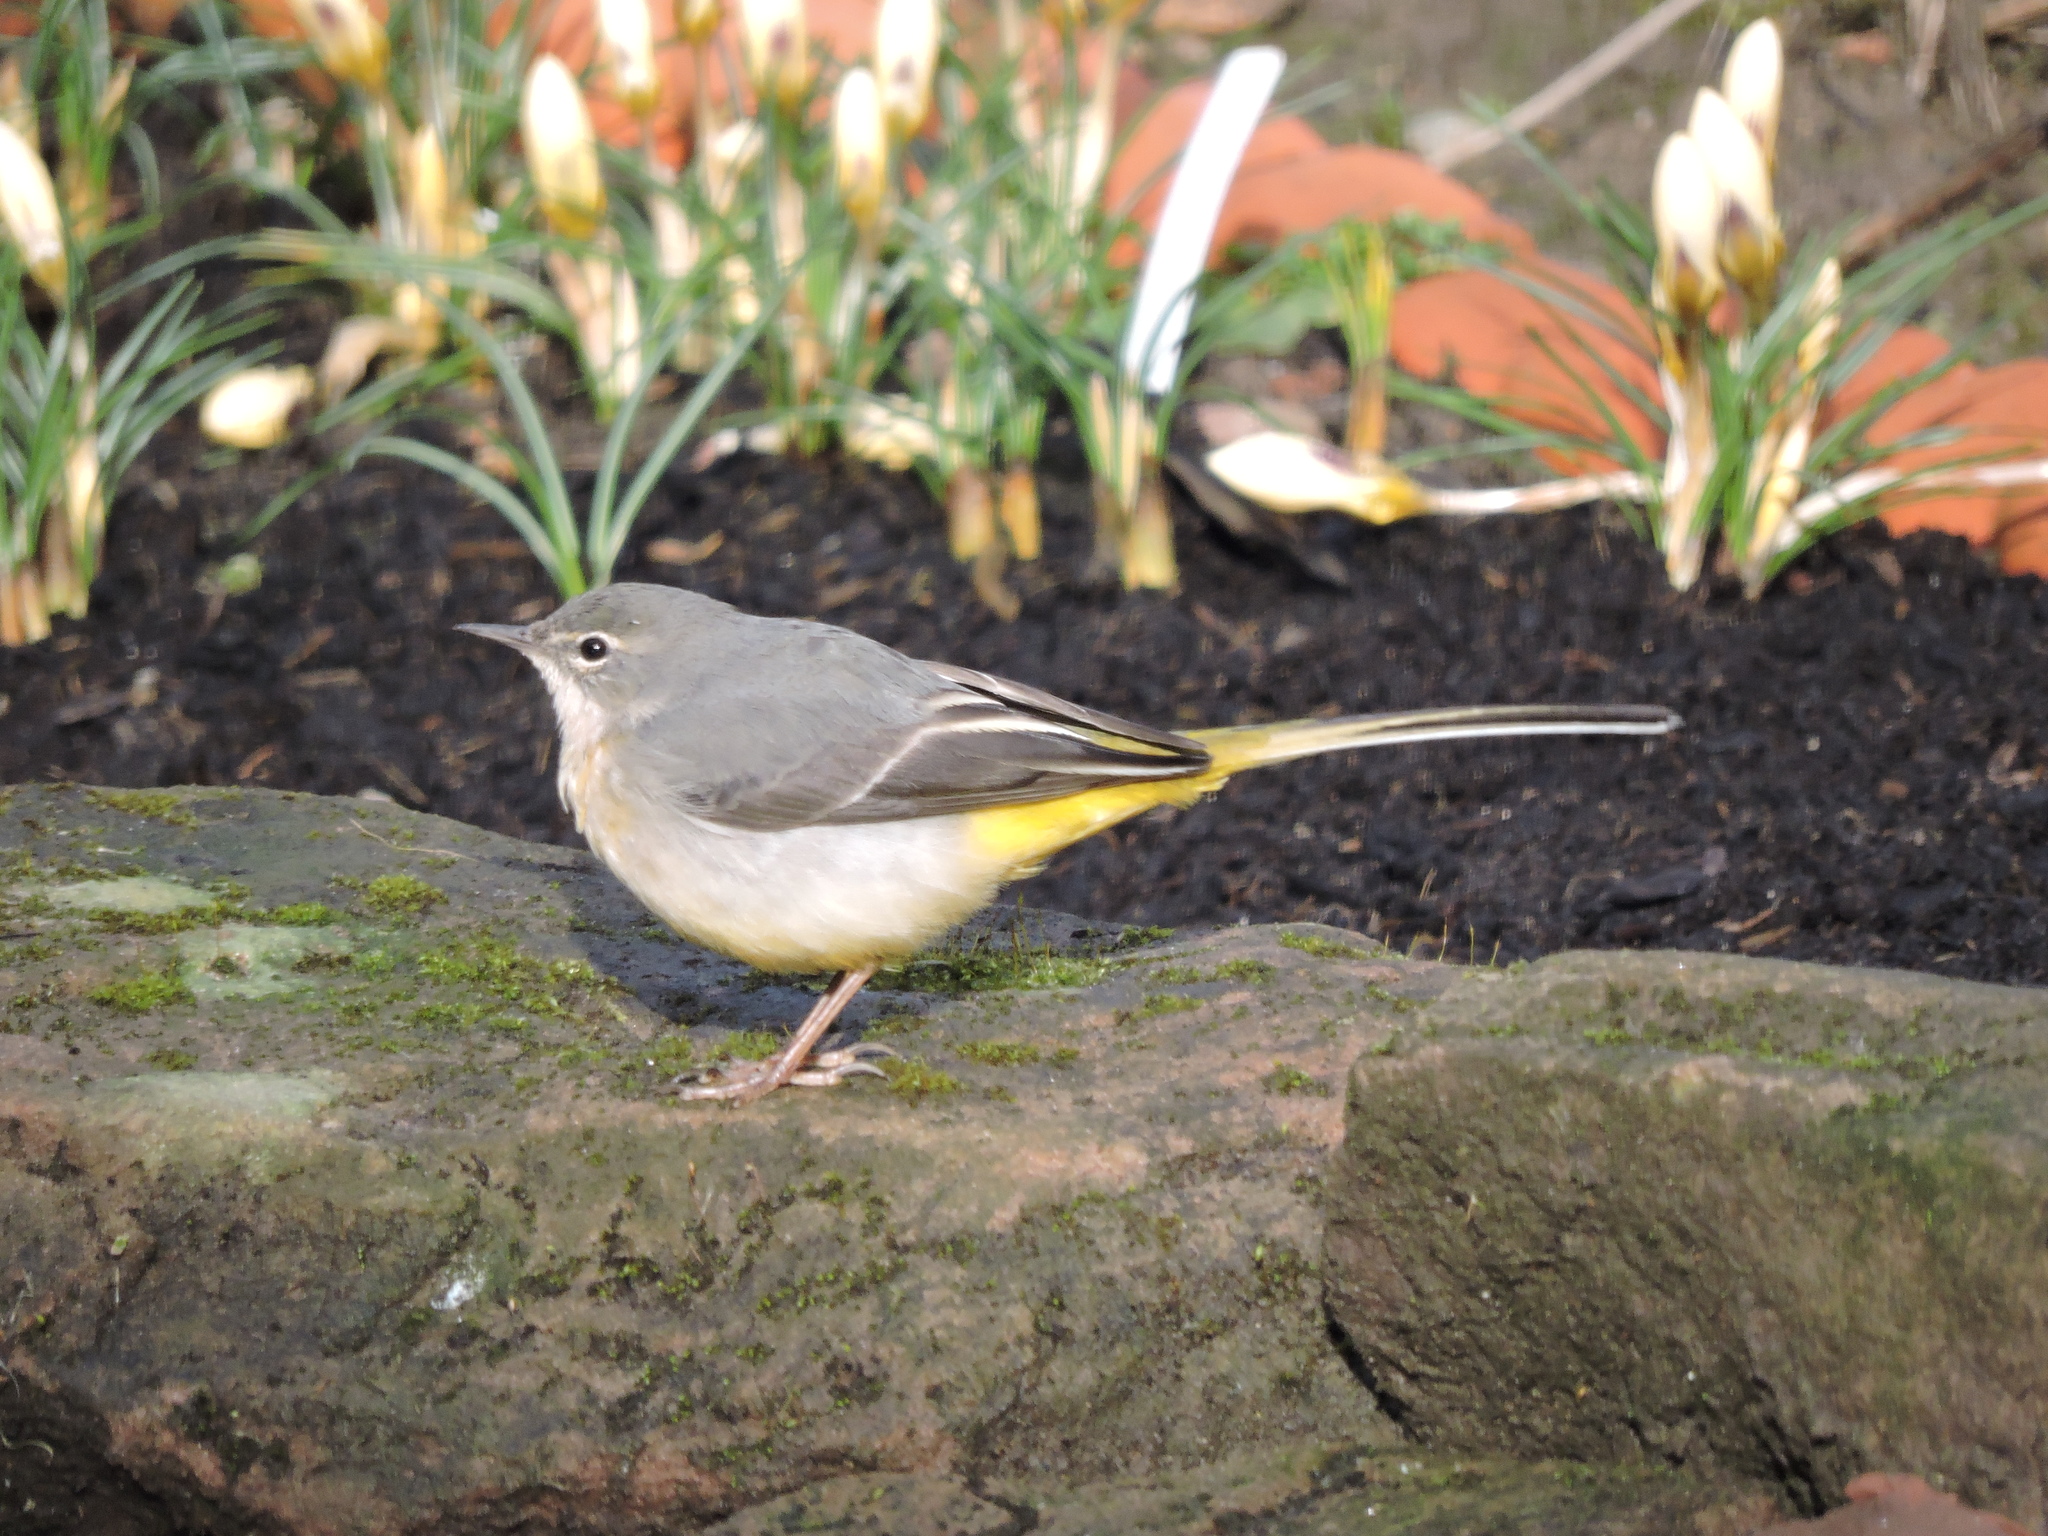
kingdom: Animalia
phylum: Chordata
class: Aves
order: Passeriformes
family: Motacillidae
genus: Motacilla
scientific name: Motacilla cinerea
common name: Grey wagtail
